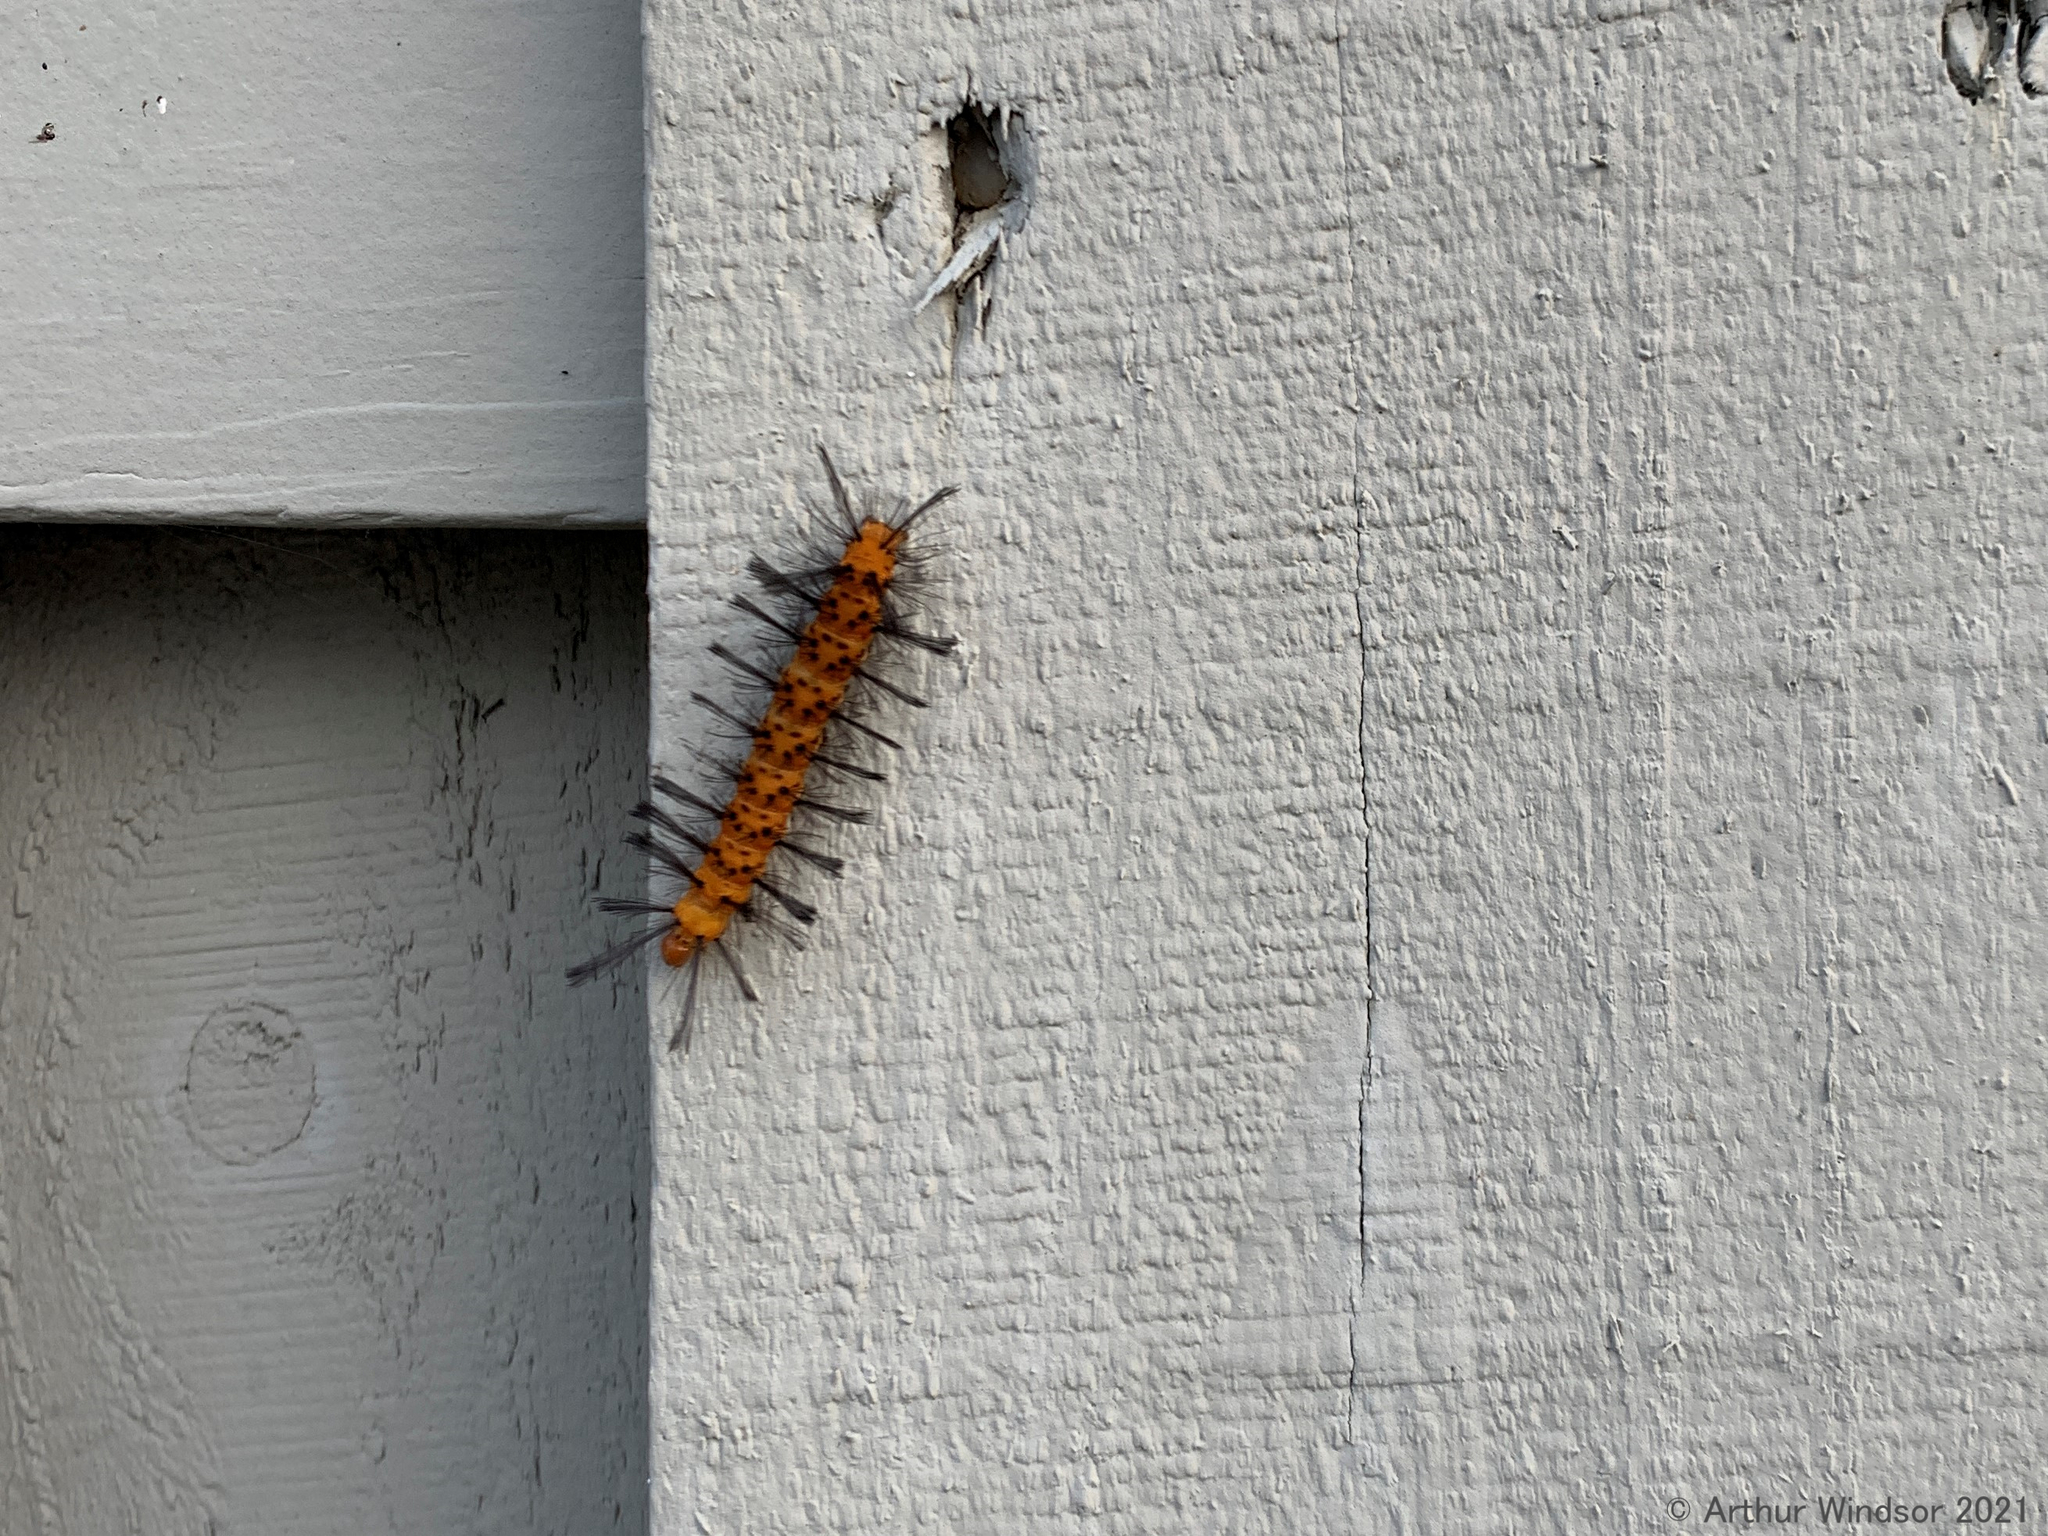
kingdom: Animalia
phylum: Arthropoda
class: Insecta
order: Lepidoptera
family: Erebidae
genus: Syntomeida
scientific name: Syntomeida epilais
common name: Polka-dot wasp moth
